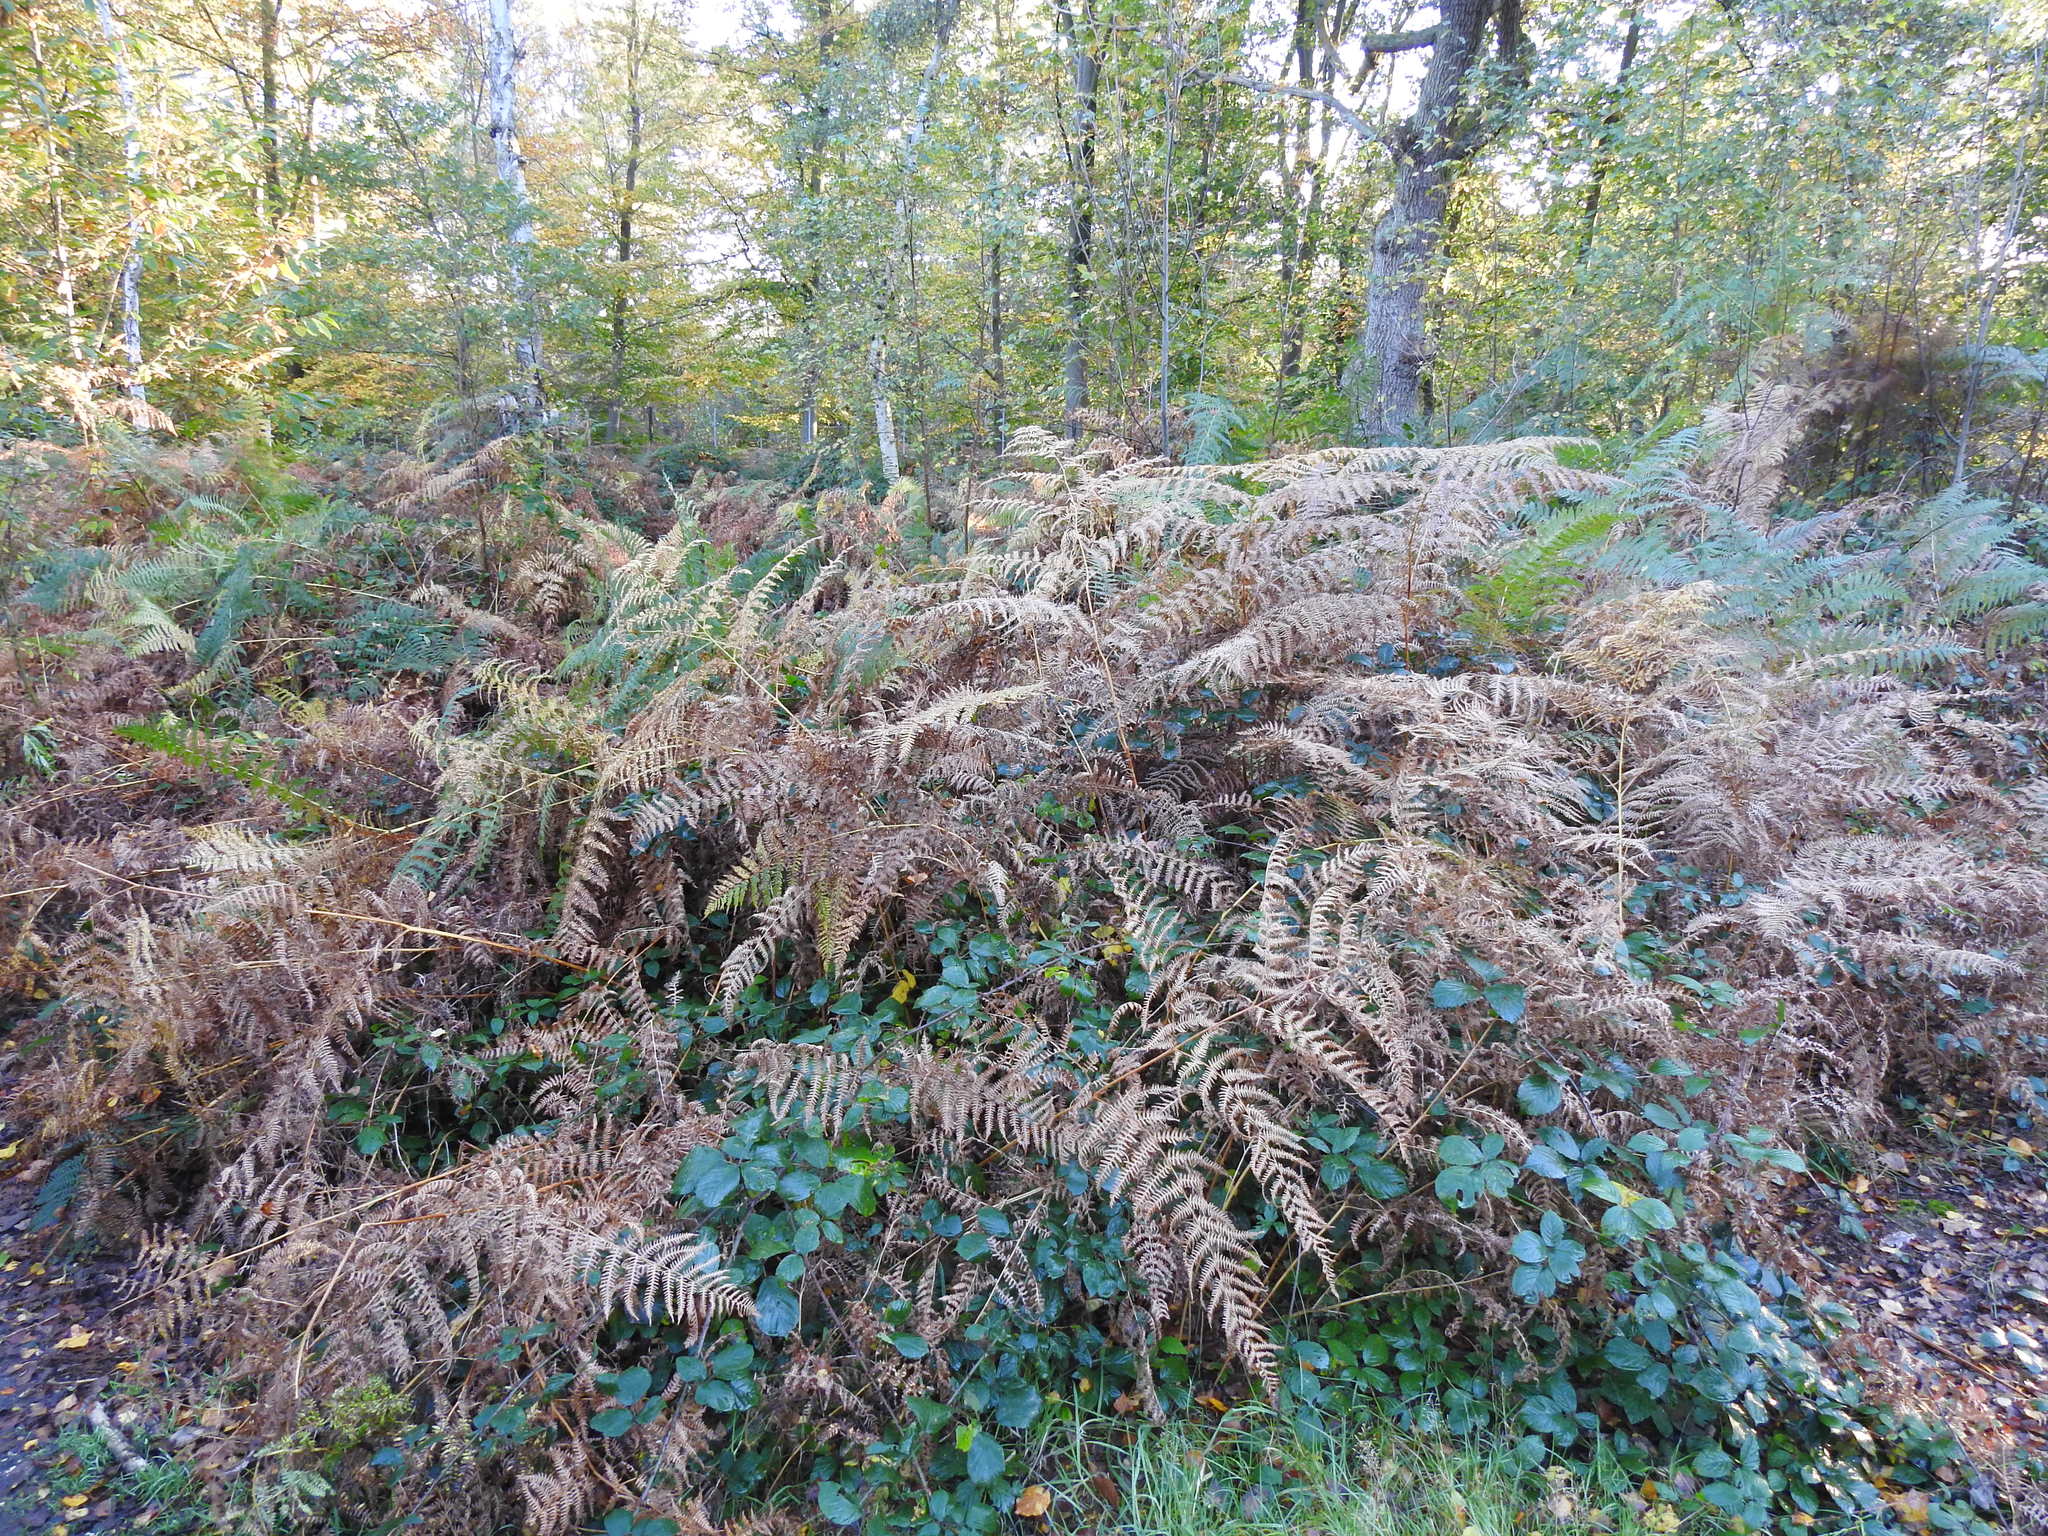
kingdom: Plantae
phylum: Tracheophyta
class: Polypodiopsida
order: Polypodiales
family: Dennstaedtiaceae
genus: Pteridium
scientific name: Pteridium aquilinum
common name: Bracken
